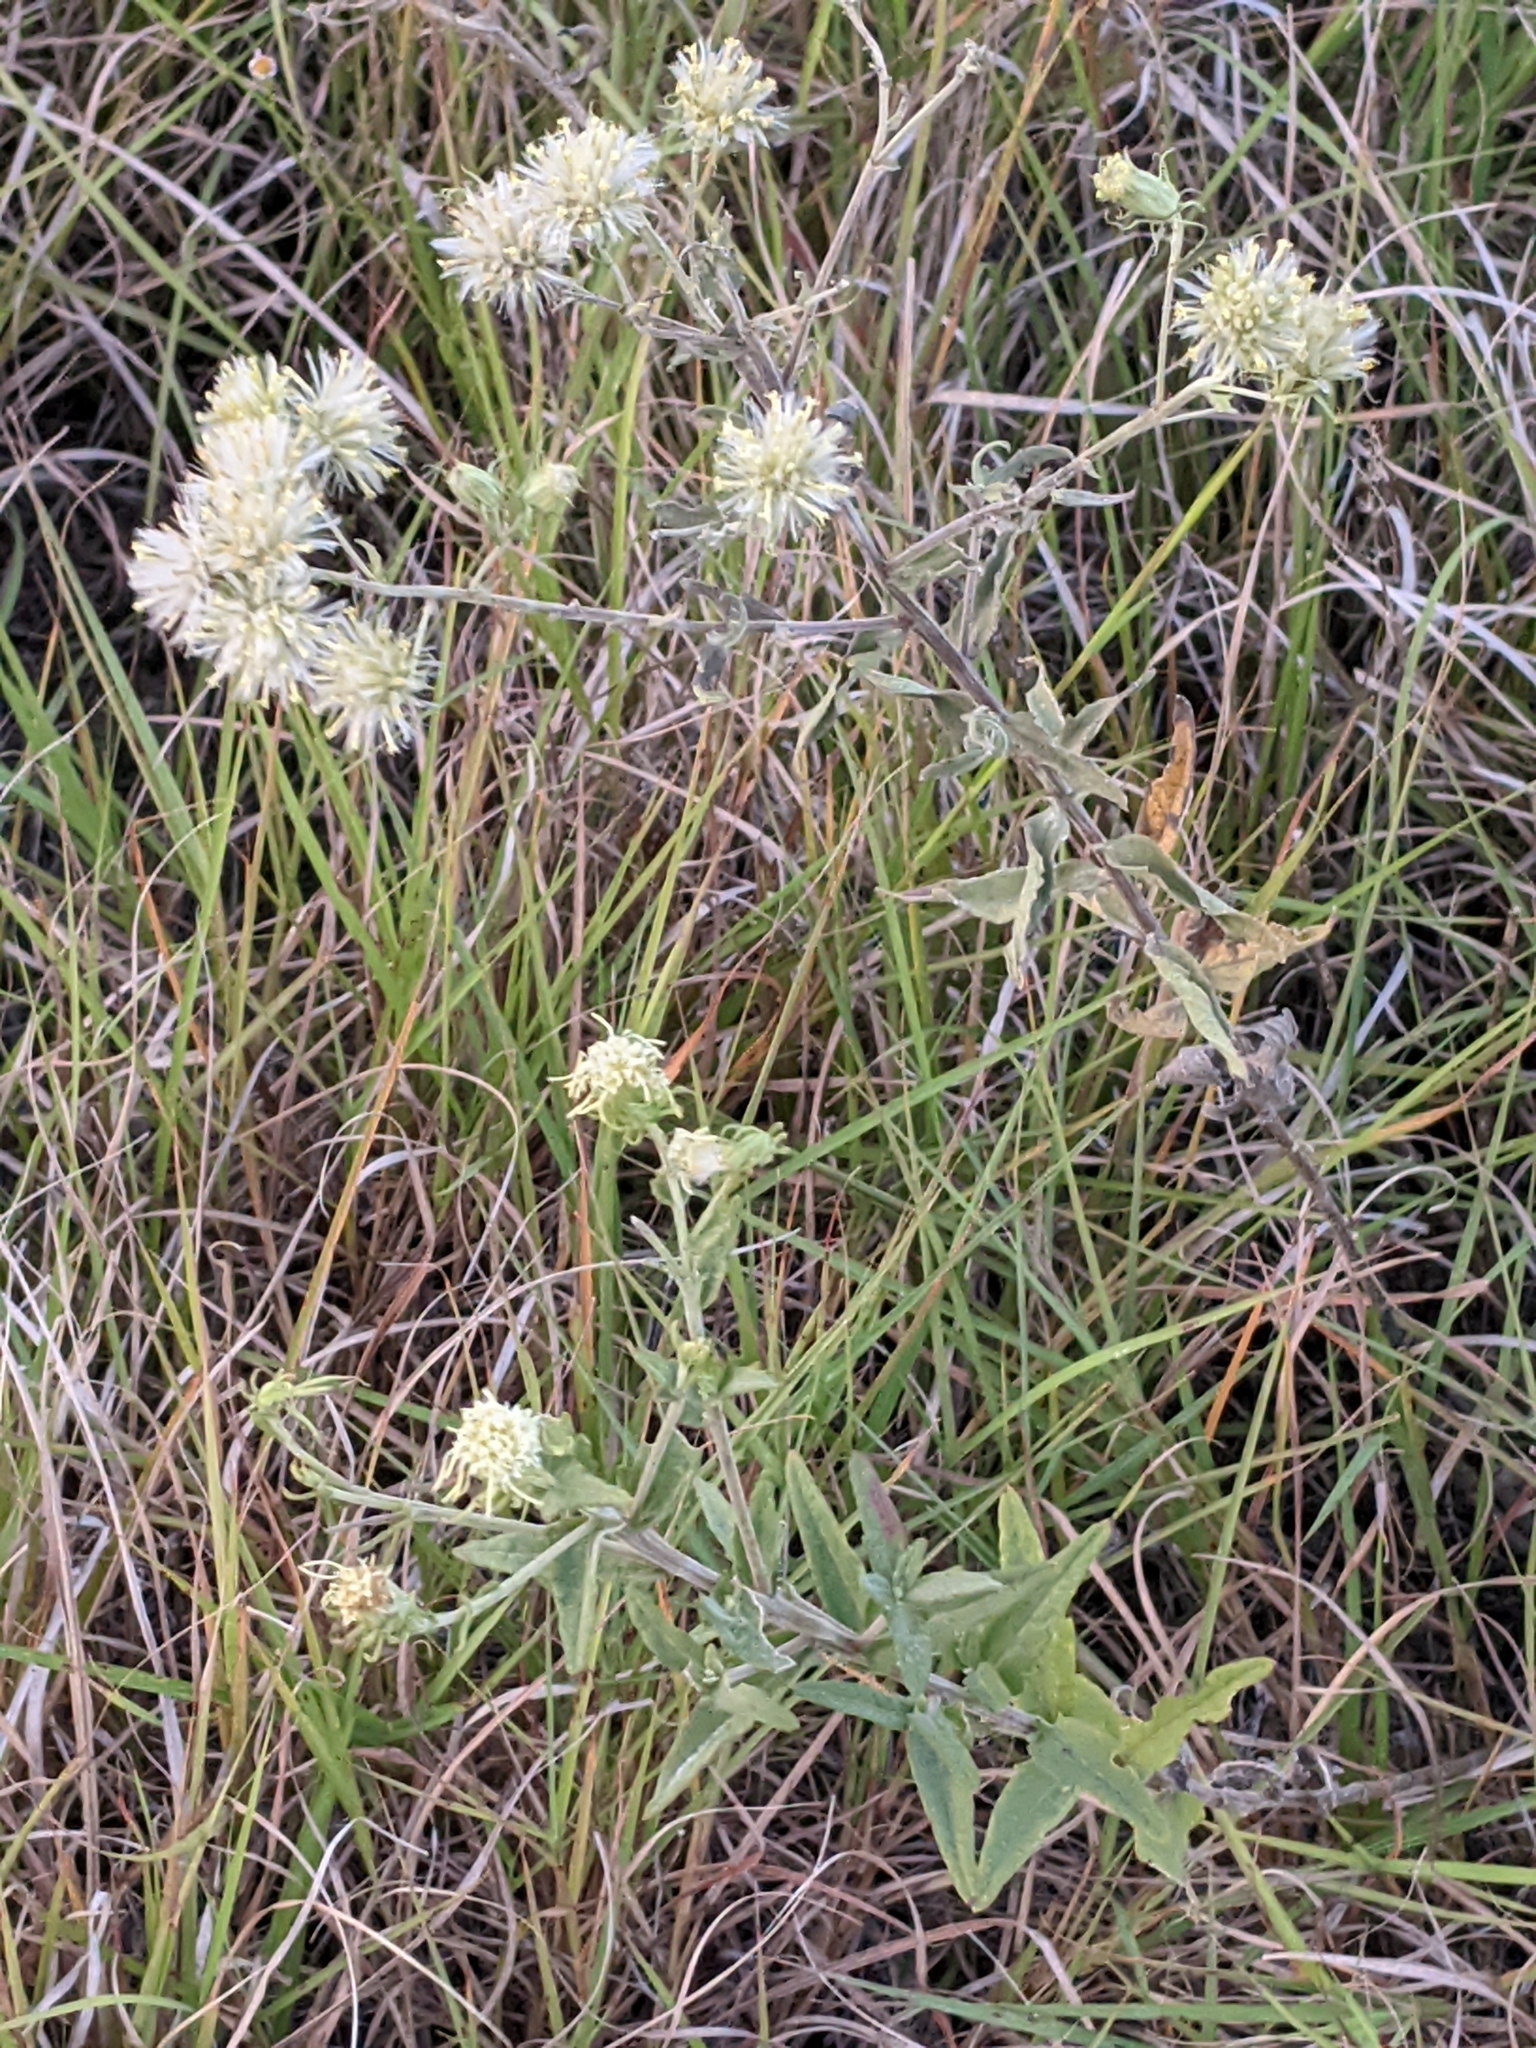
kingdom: Plantae
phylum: Tracheophyta
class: Magnoliopsida
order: Asterales
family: Asteraceae
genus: Brickellia
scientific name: Brickellia eupatorioides
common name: False boneset
